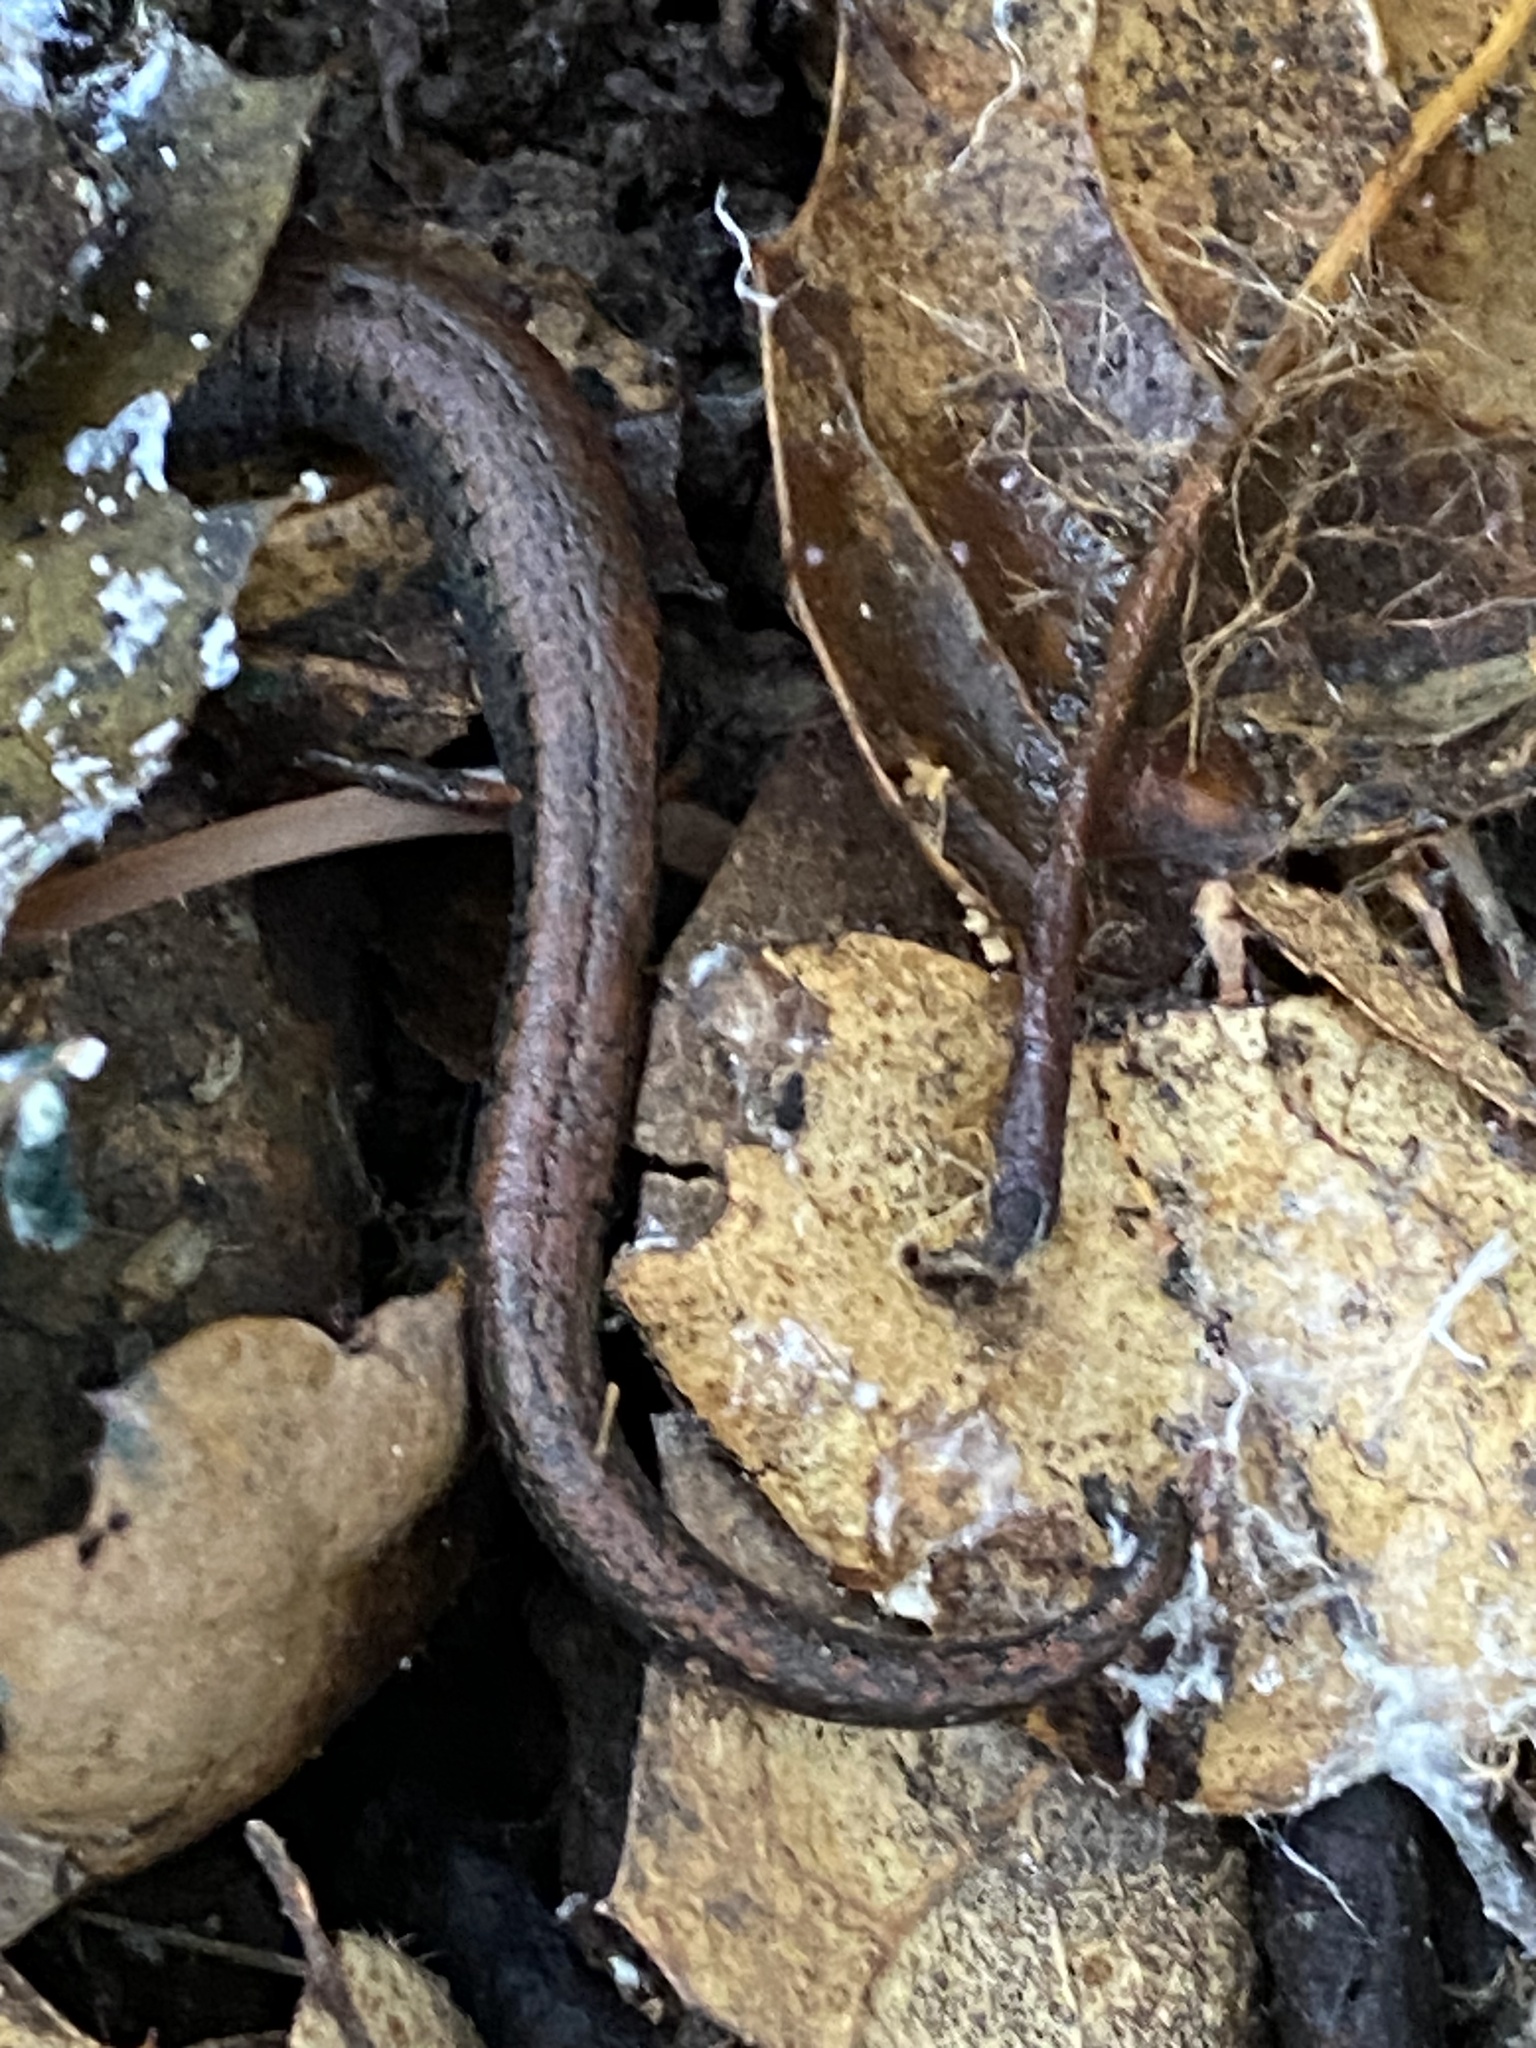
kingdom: Animalia
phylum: Chordata
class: Amphibia
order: Caudata
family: Plethodontidae
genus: Batrachoseps
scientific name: Batrachoseps attenuatus
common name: California slender salamander
